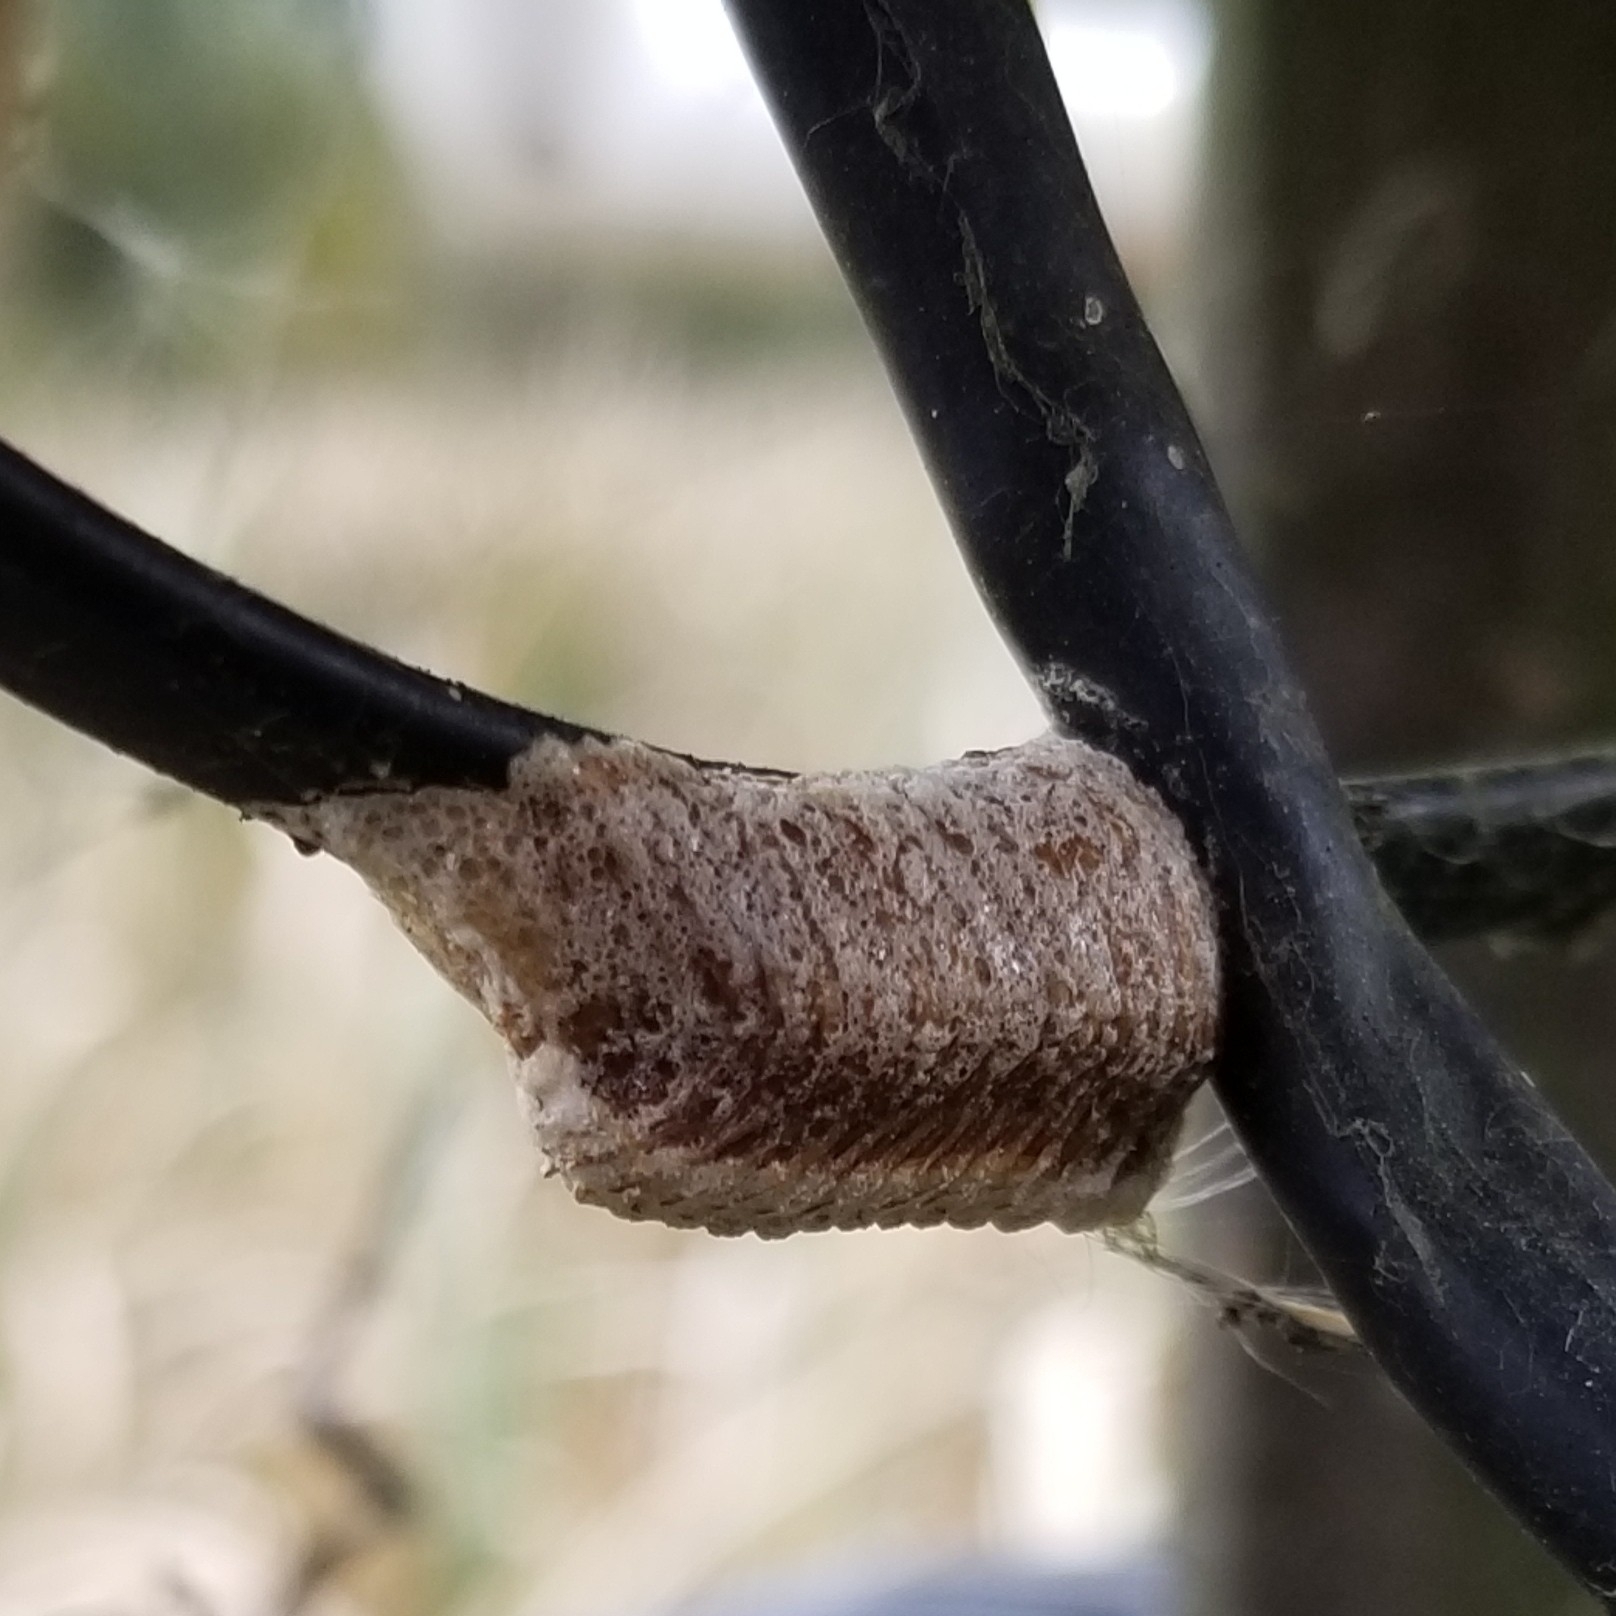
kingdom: Animalia
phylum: Arthropoda
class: Insecta
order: Mantodea
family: Mantidae
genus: Stagmomantis
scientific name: Stagmomantis carolina
